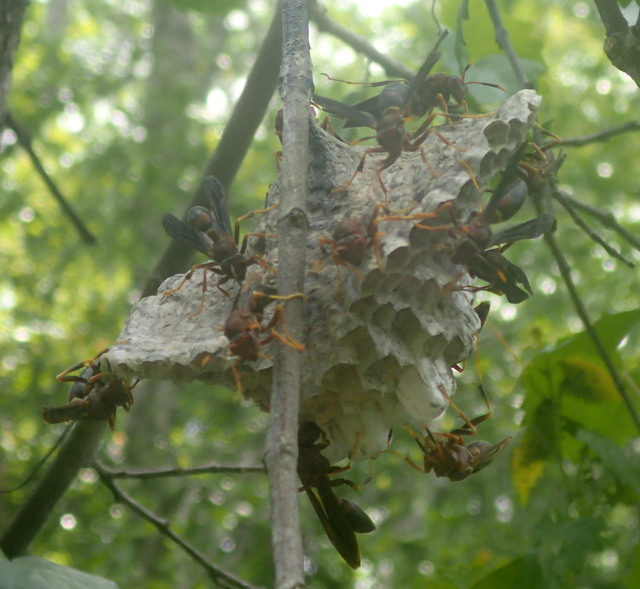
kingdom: Animalia
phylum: Arthropoda
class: Insecta
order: Hymenoptera
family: Eumenidae
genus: Polistes
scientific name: Polistes annularis
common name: Ringed paper wasp
